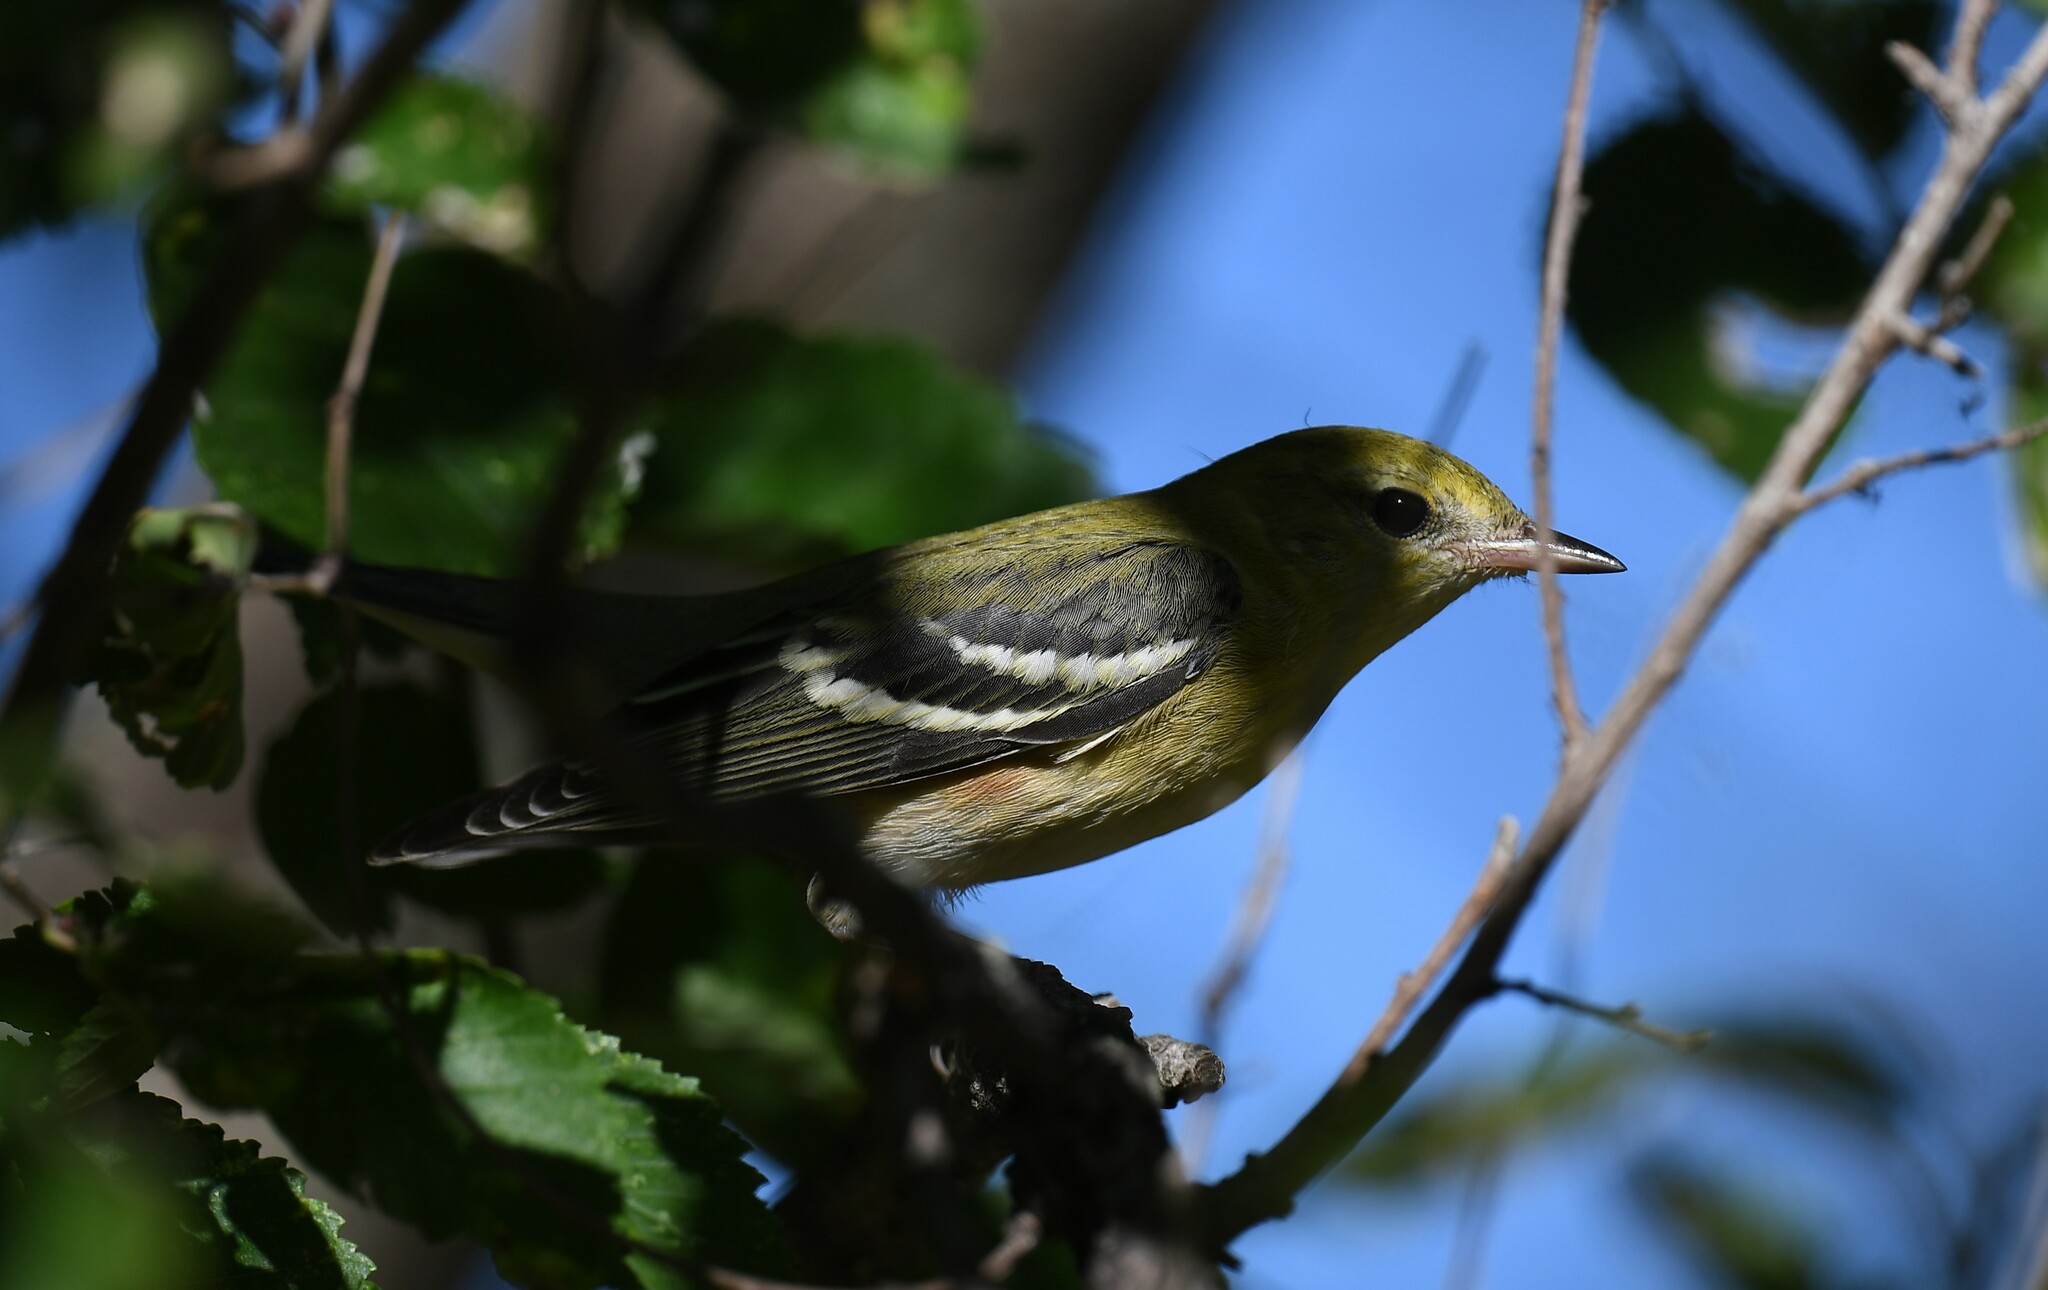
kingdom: Animalia
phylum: Chordata
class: Aves
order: Passeriformes
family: Parulidae
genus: Setophaga
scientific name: Setophaga castanea
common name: Bay-breasted warbler
